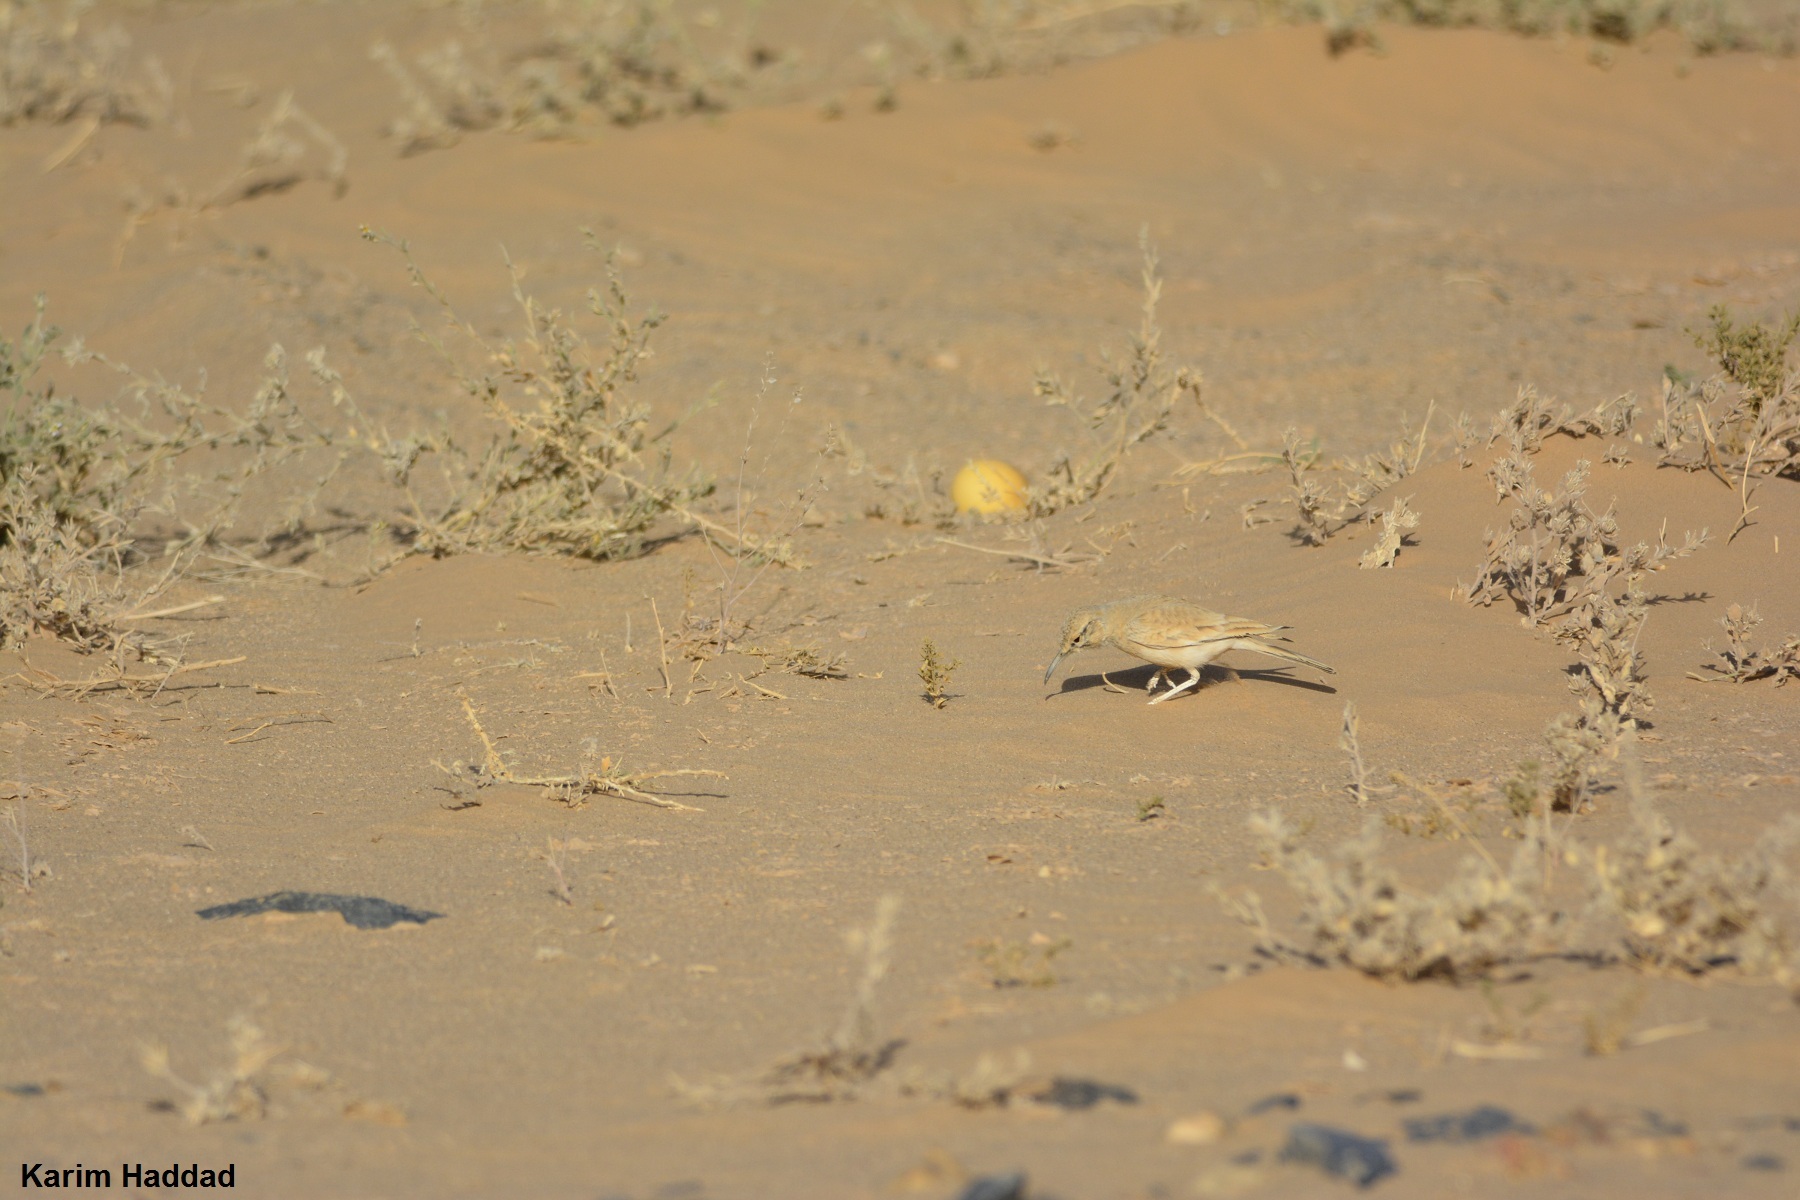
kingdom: Animalia
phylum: Chordata
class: Aves
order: Passeriformes
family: Alaudidae
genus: Alaemon
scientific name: Alaemon alaudipes
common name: Greater hoopoe-lark
